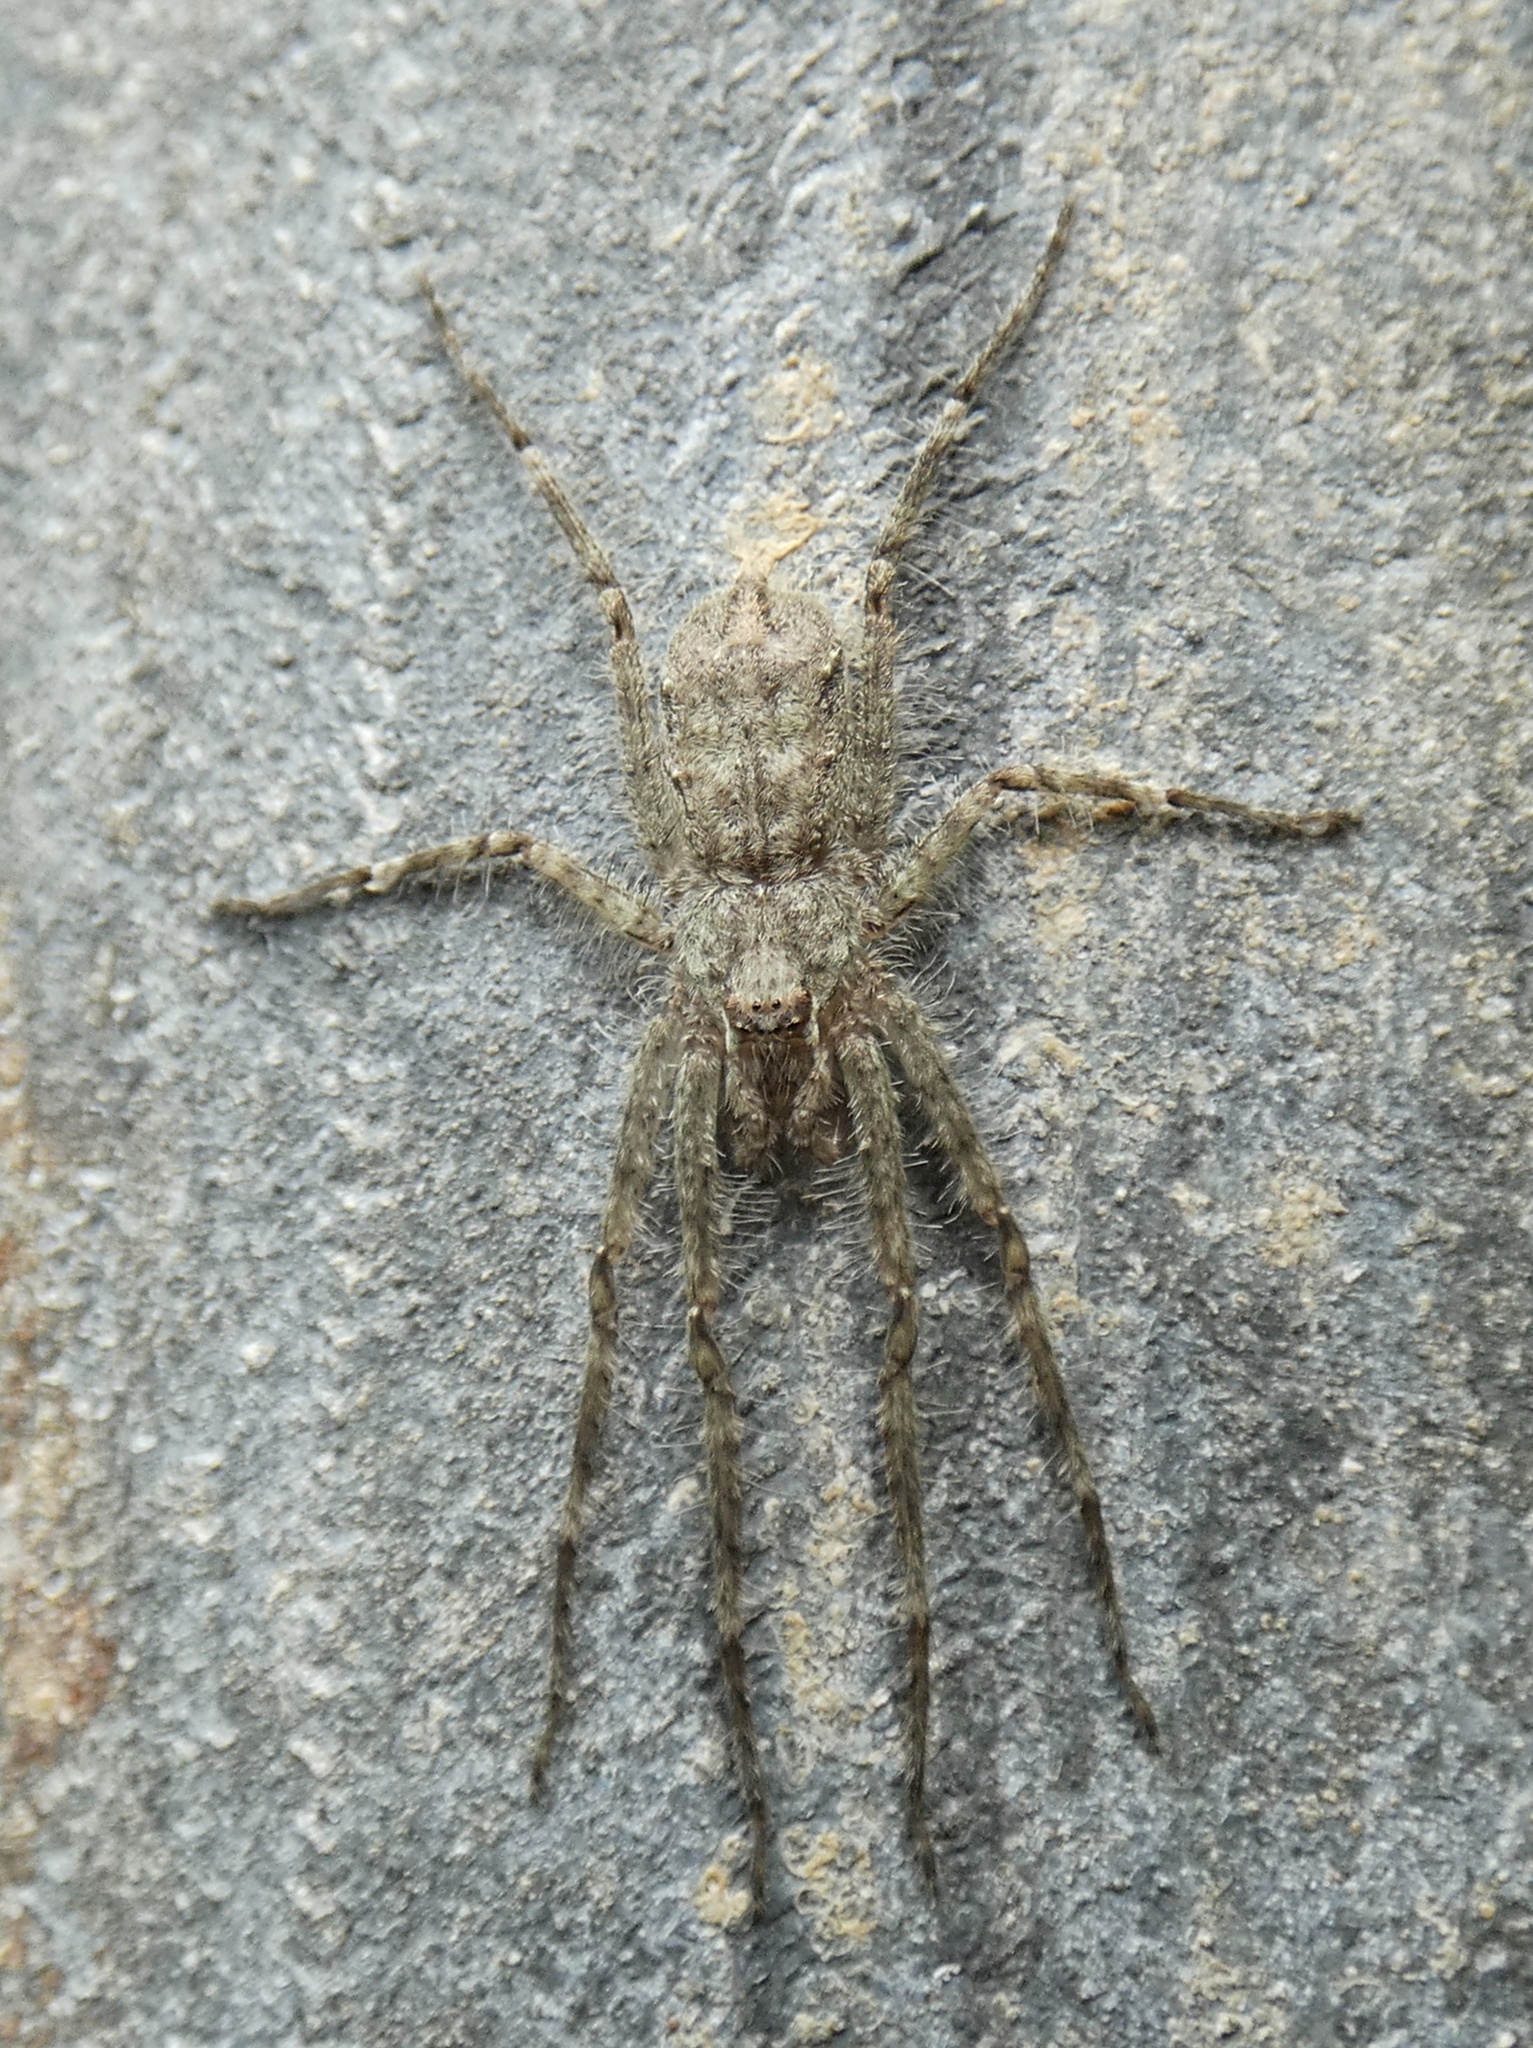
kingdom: Animalia
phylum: Arthropoda
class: Arachnida
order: Araneae
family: Sparassidae
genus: Pandercetes
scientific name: Pandercetes gracilis
